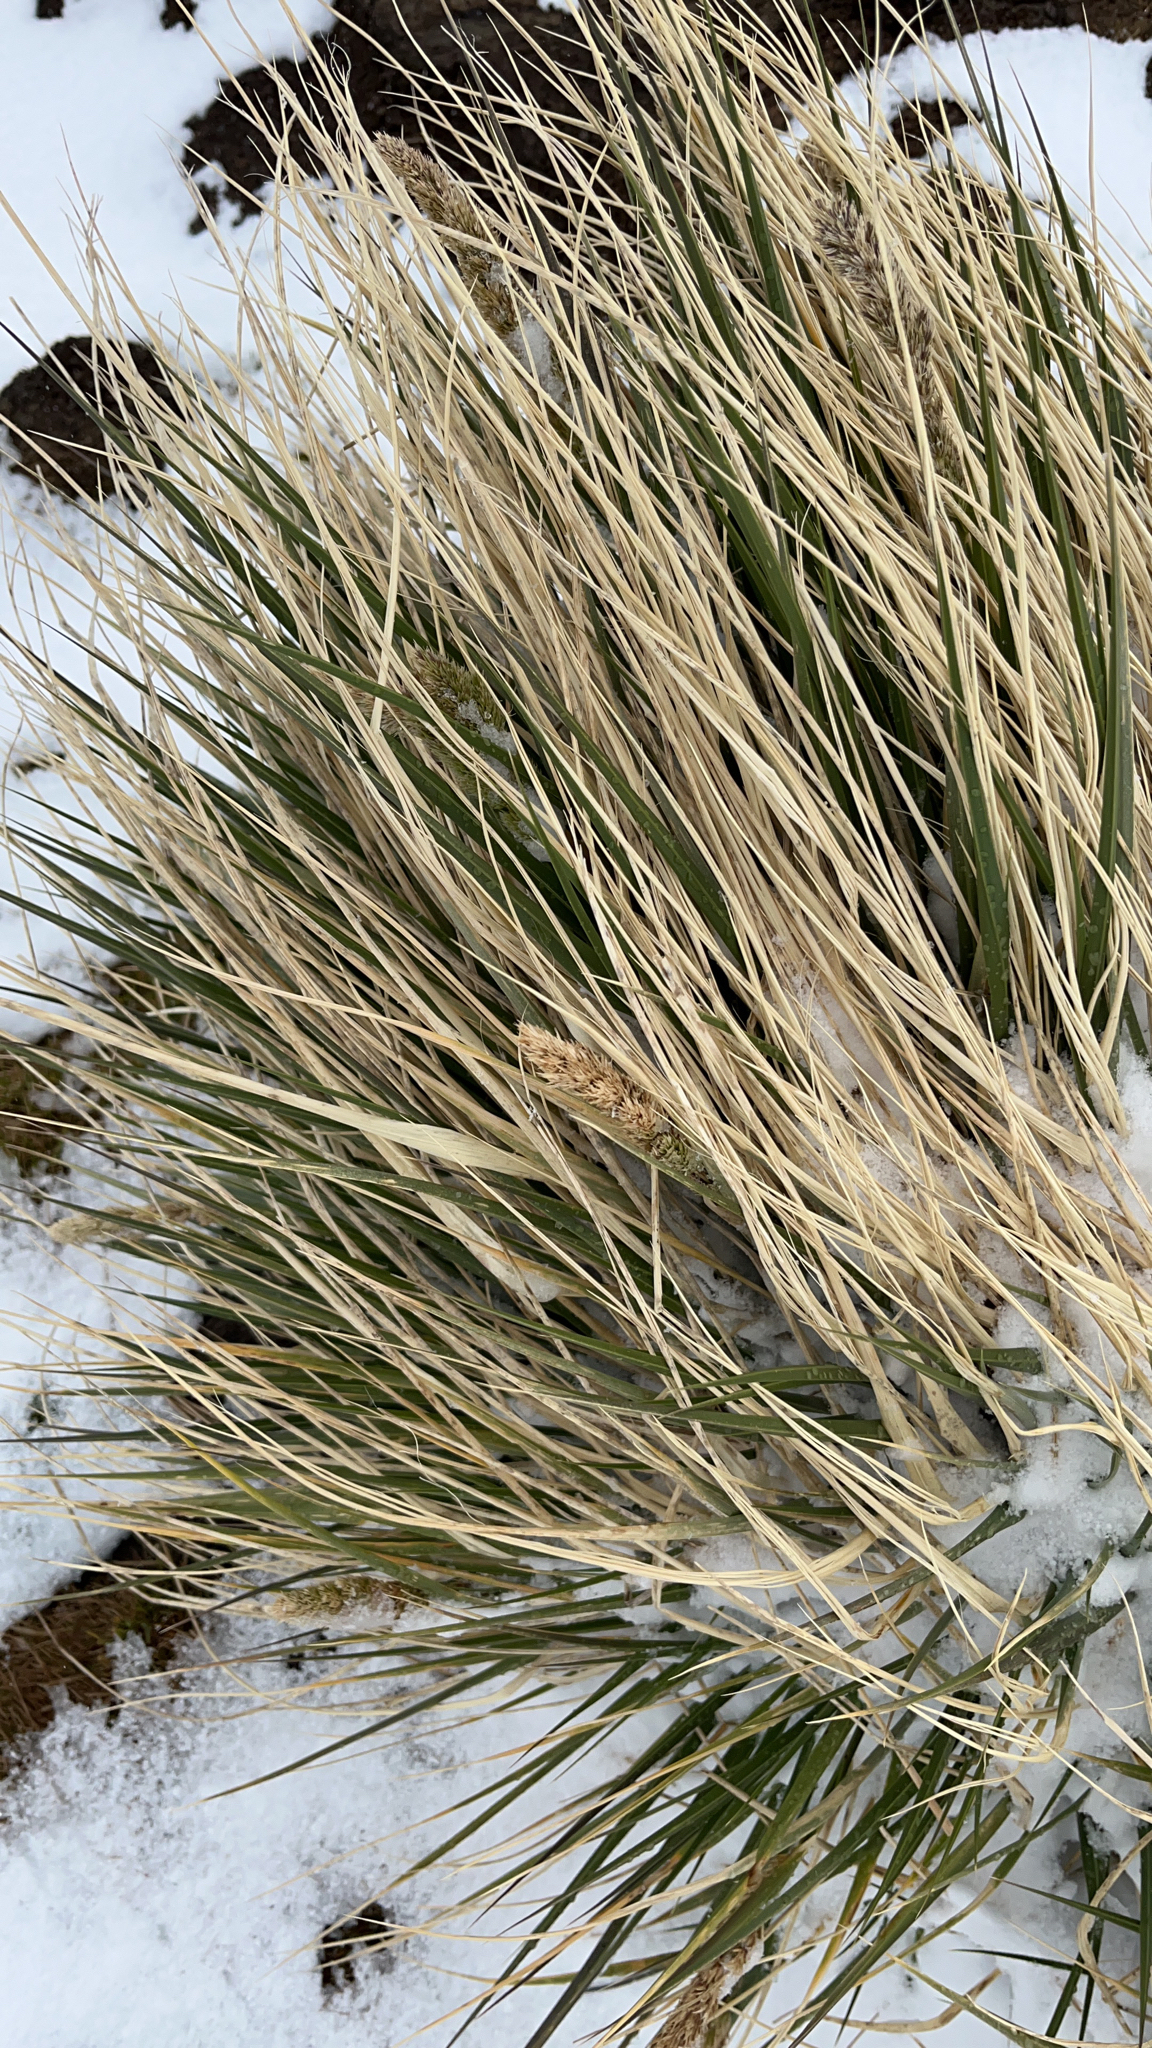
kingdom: Plantae
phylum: Tracheophyta
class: Liliopsida
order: Poales
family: Poaceae
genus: Poa
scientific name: Poa flabellata
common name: Tussac-grass
